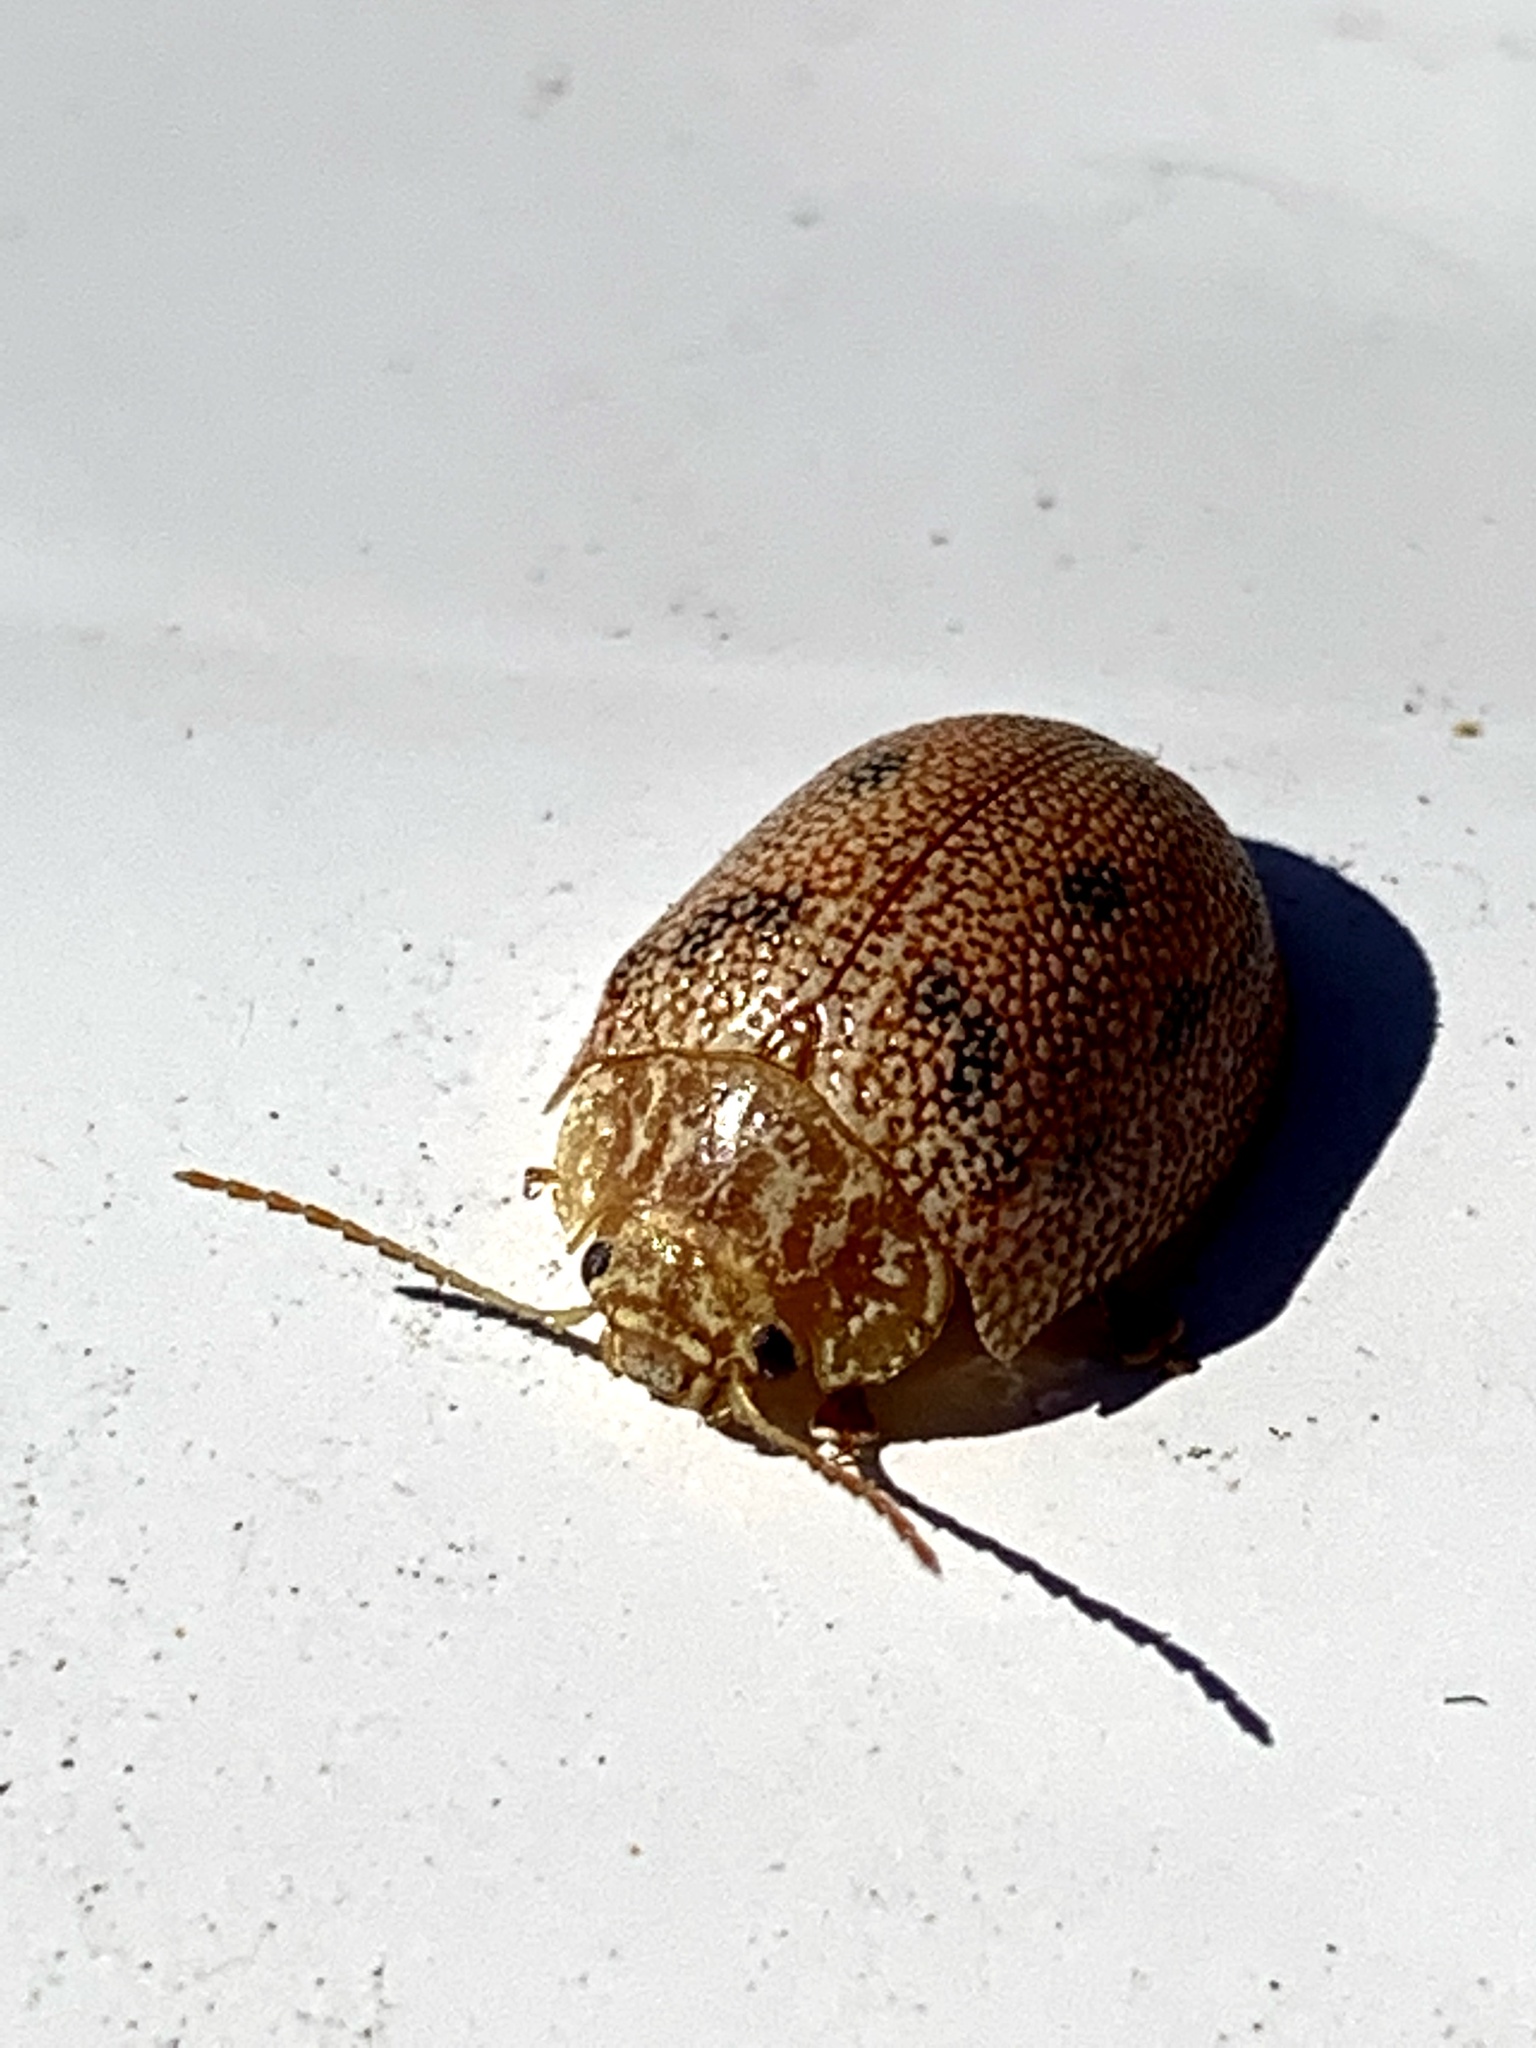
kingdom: Animalia
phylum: Arthropoda
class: Insecta
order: Coleoptera
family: Chrysomelidae
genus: Paropsis
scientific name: Paropsis
